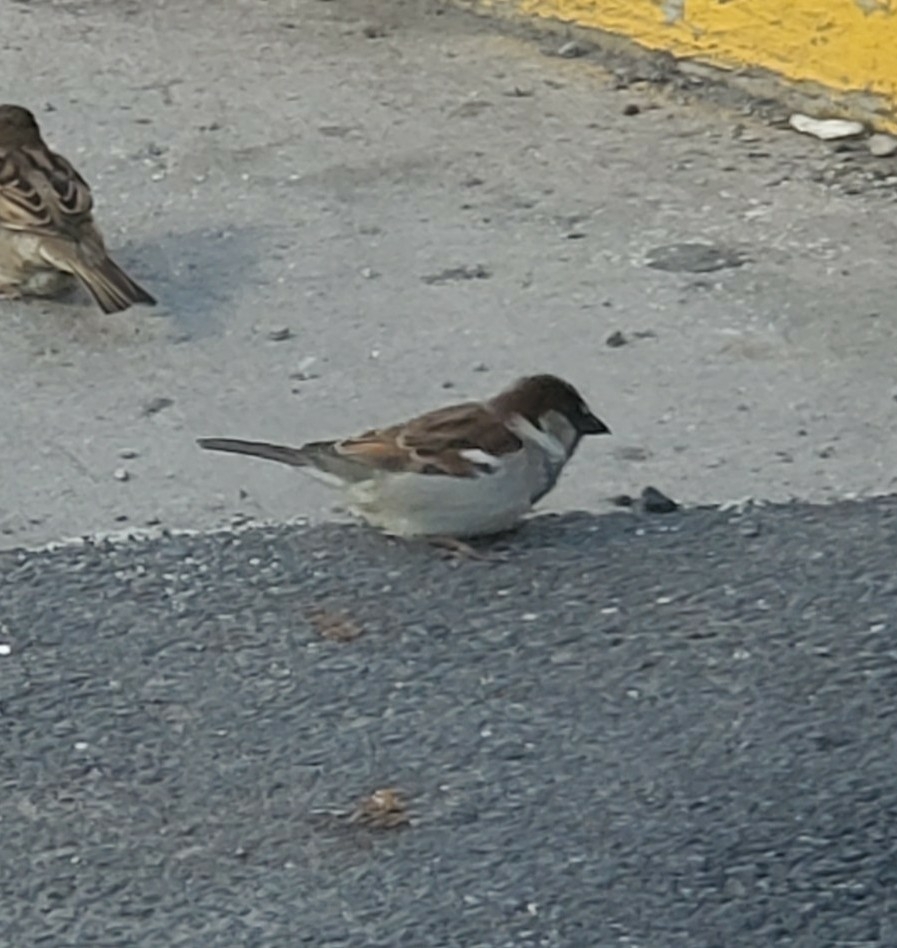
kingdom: Animalia
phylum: Chordata
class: Aves
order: Passeriformes
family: Passeridae
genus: Passer
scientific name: Passer domesticus
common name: House sparrow
